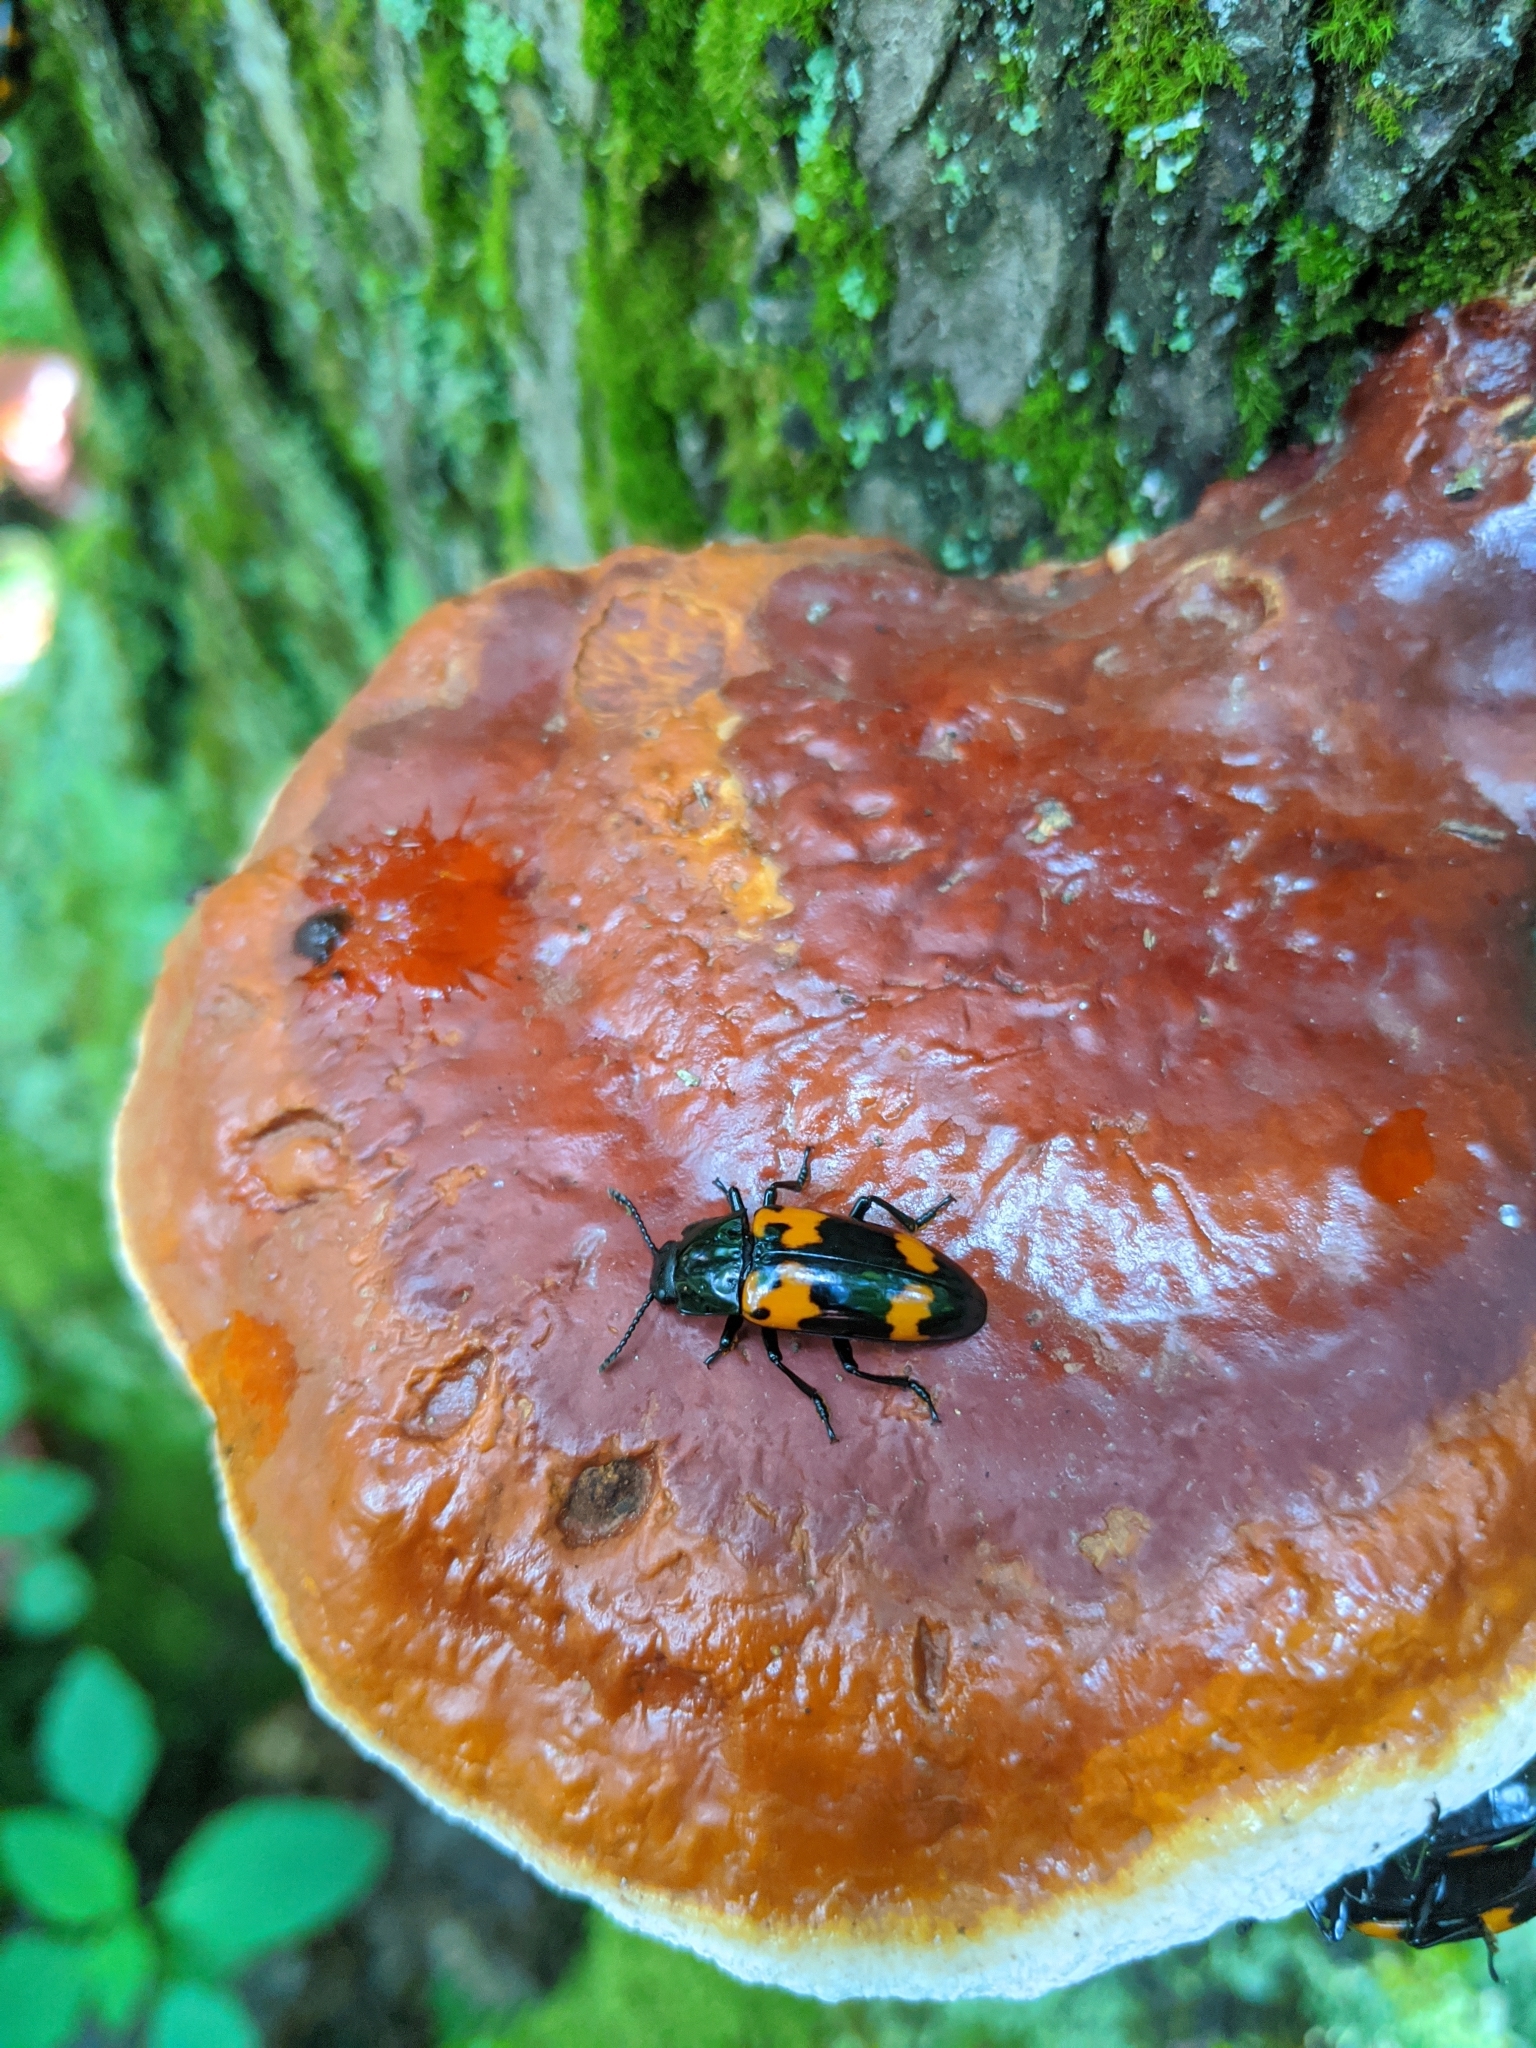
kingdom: Animalia
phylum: Arthropoda
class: Insecta
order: Coleoptera
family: Erotylidae
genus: Megalodacne
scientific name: Megalodacne heros
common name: Pleasing fungus beetle
